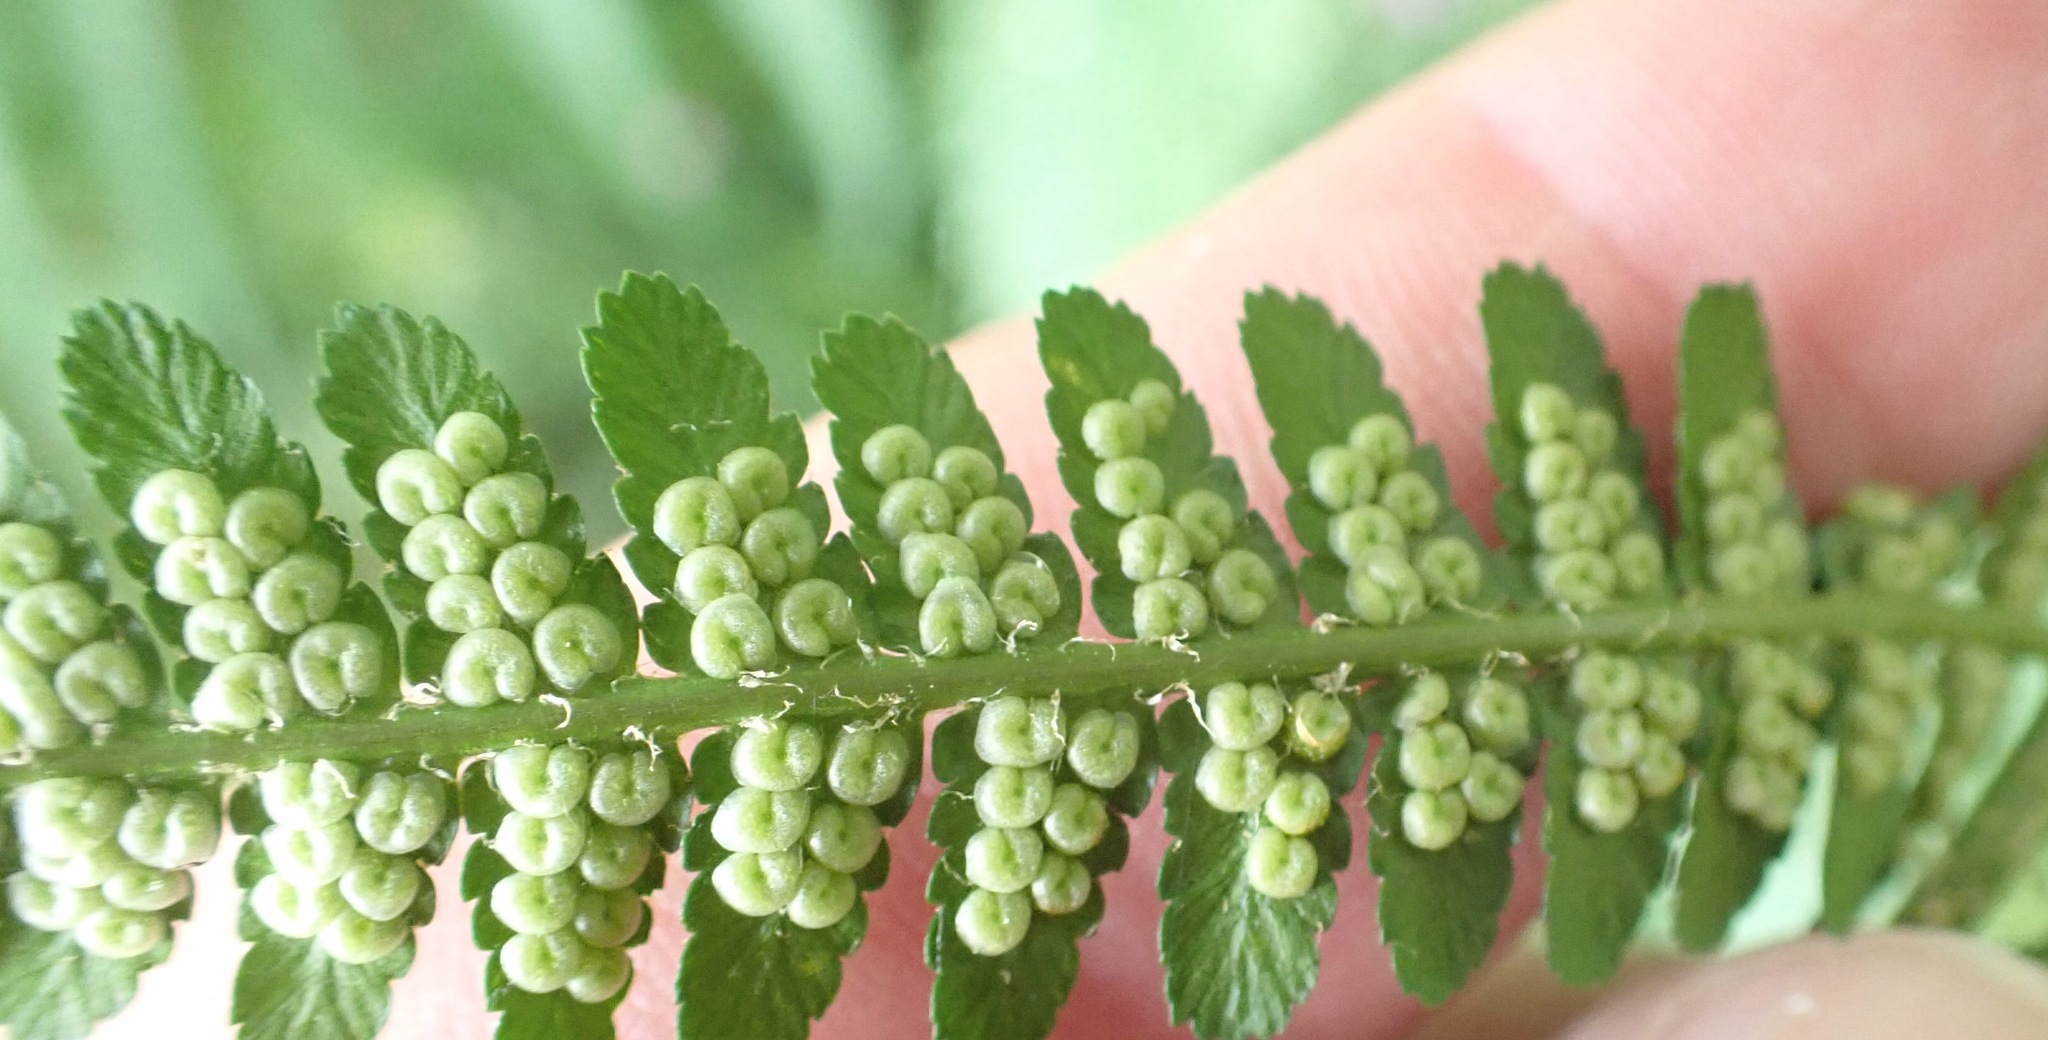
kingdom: Plantae
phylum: Tracheophyta
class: Polypodiopsida
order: Polypodiales
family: Dryopteridaceae
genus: Dryopteris
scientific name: Dryopteris filix-mas
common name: Male fern
